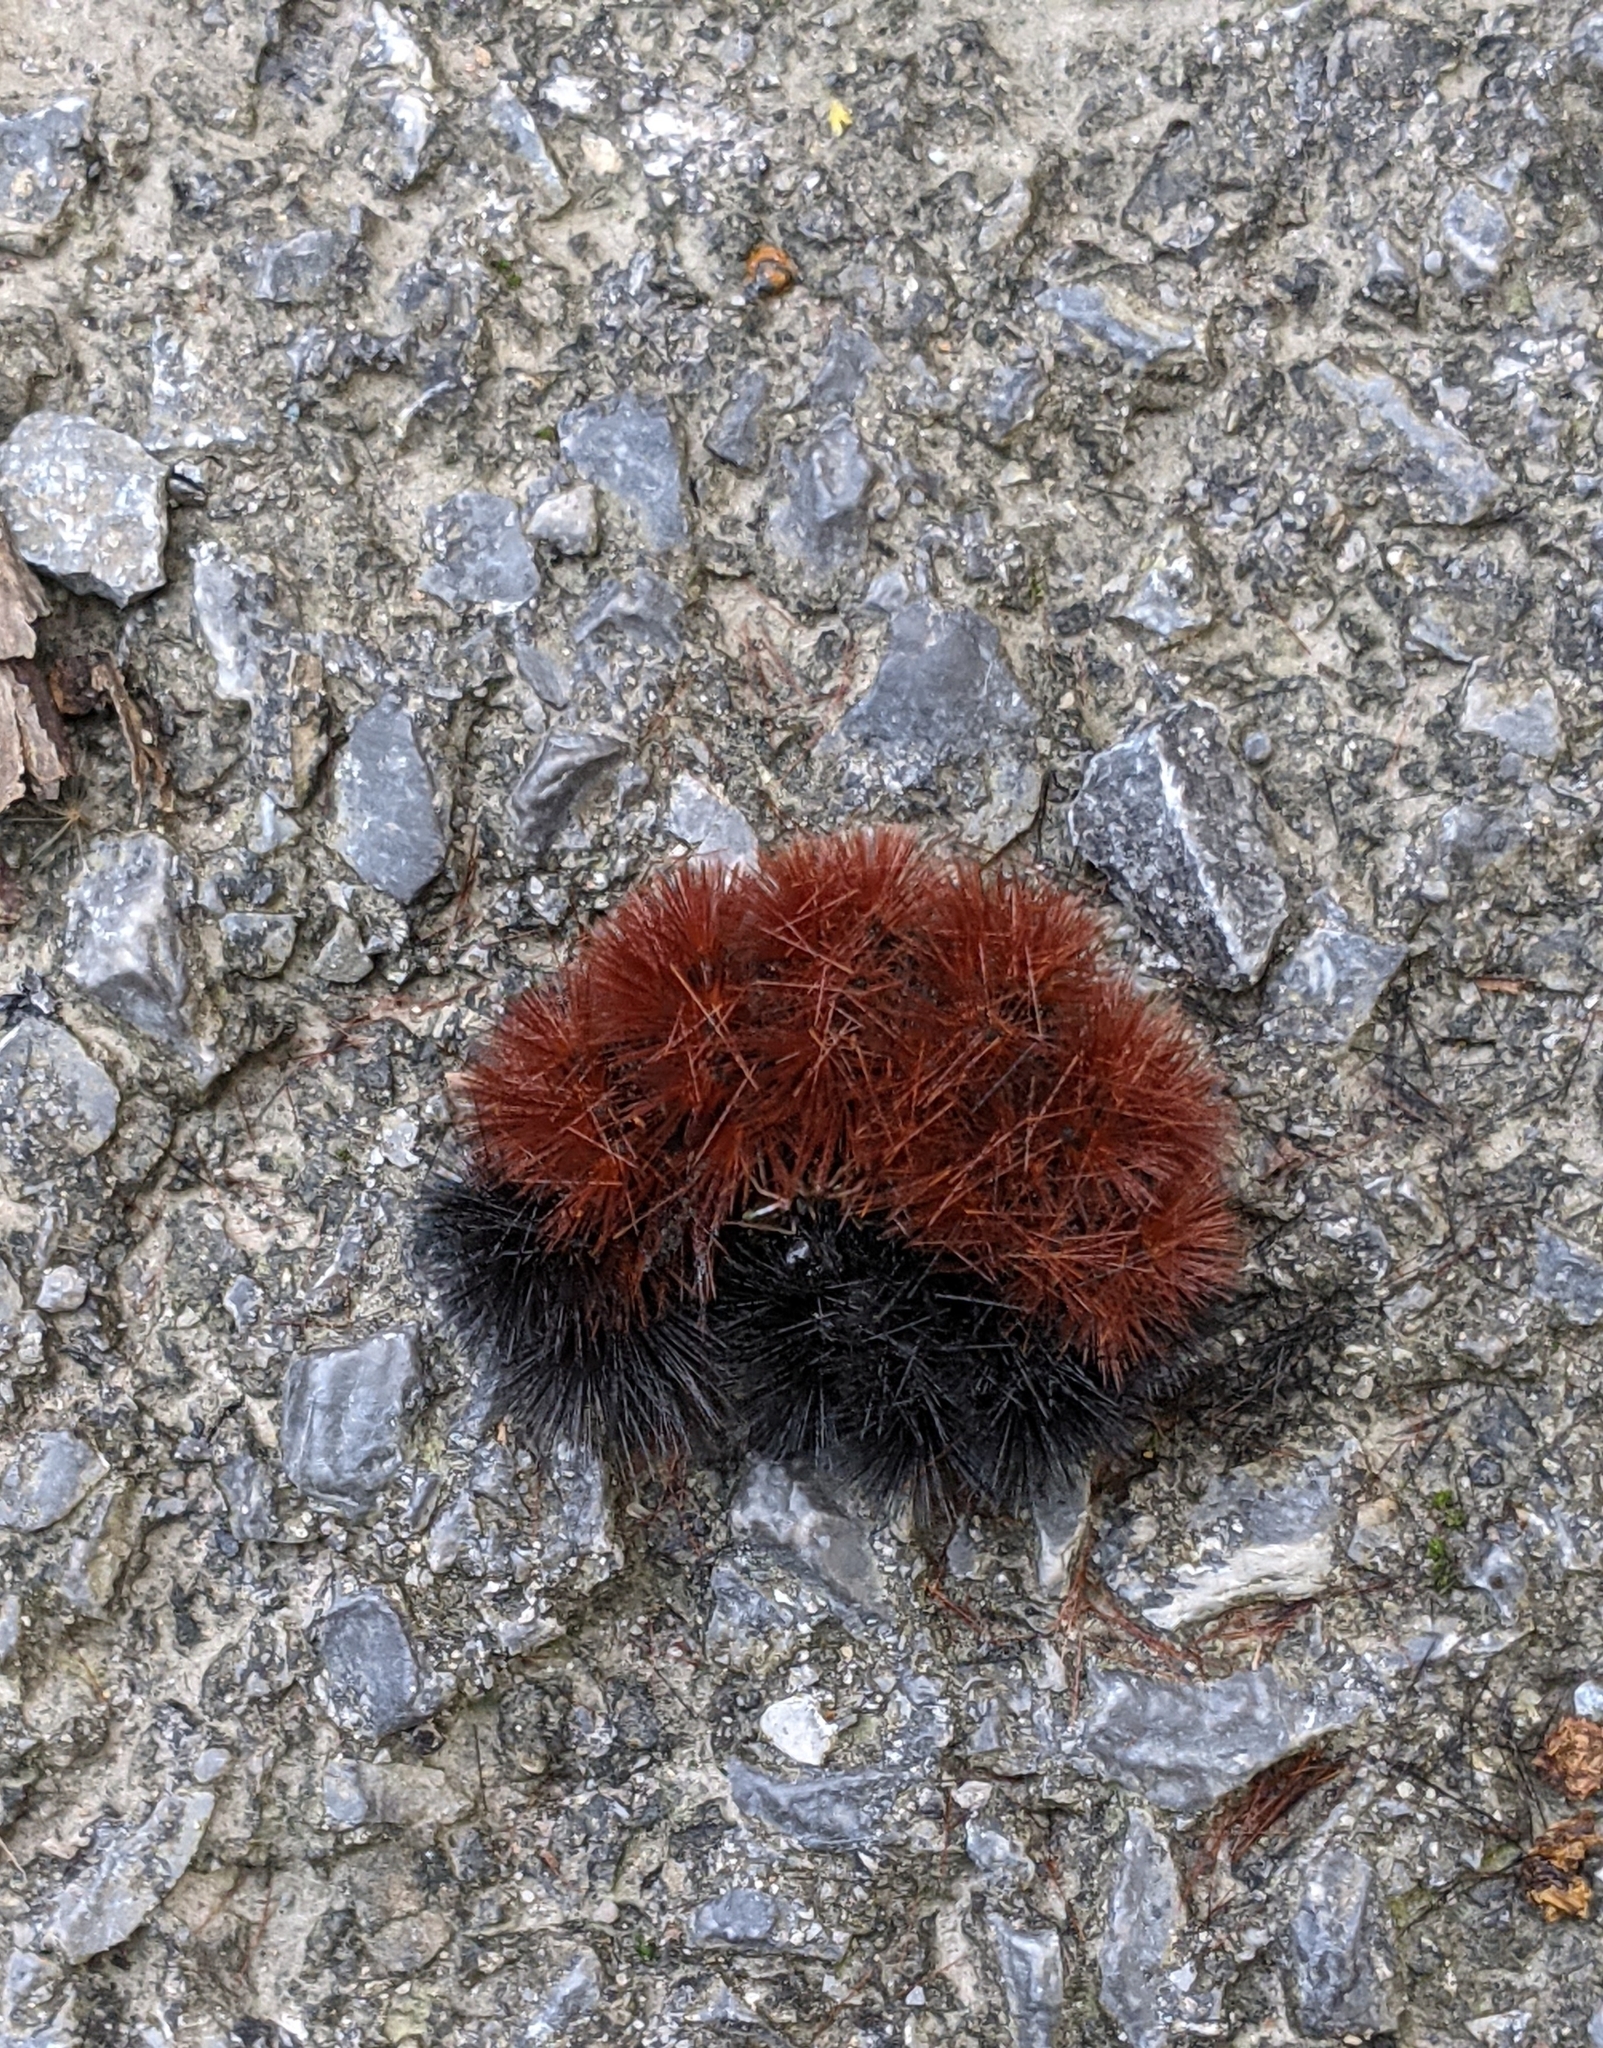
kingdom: Animalia
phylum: Arthropoda
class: Insecta
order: Lepidoptera
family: Erebidae
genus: Pyrrharctia
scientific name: Pyrrharctia isabella
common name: Isabella tiger moth
